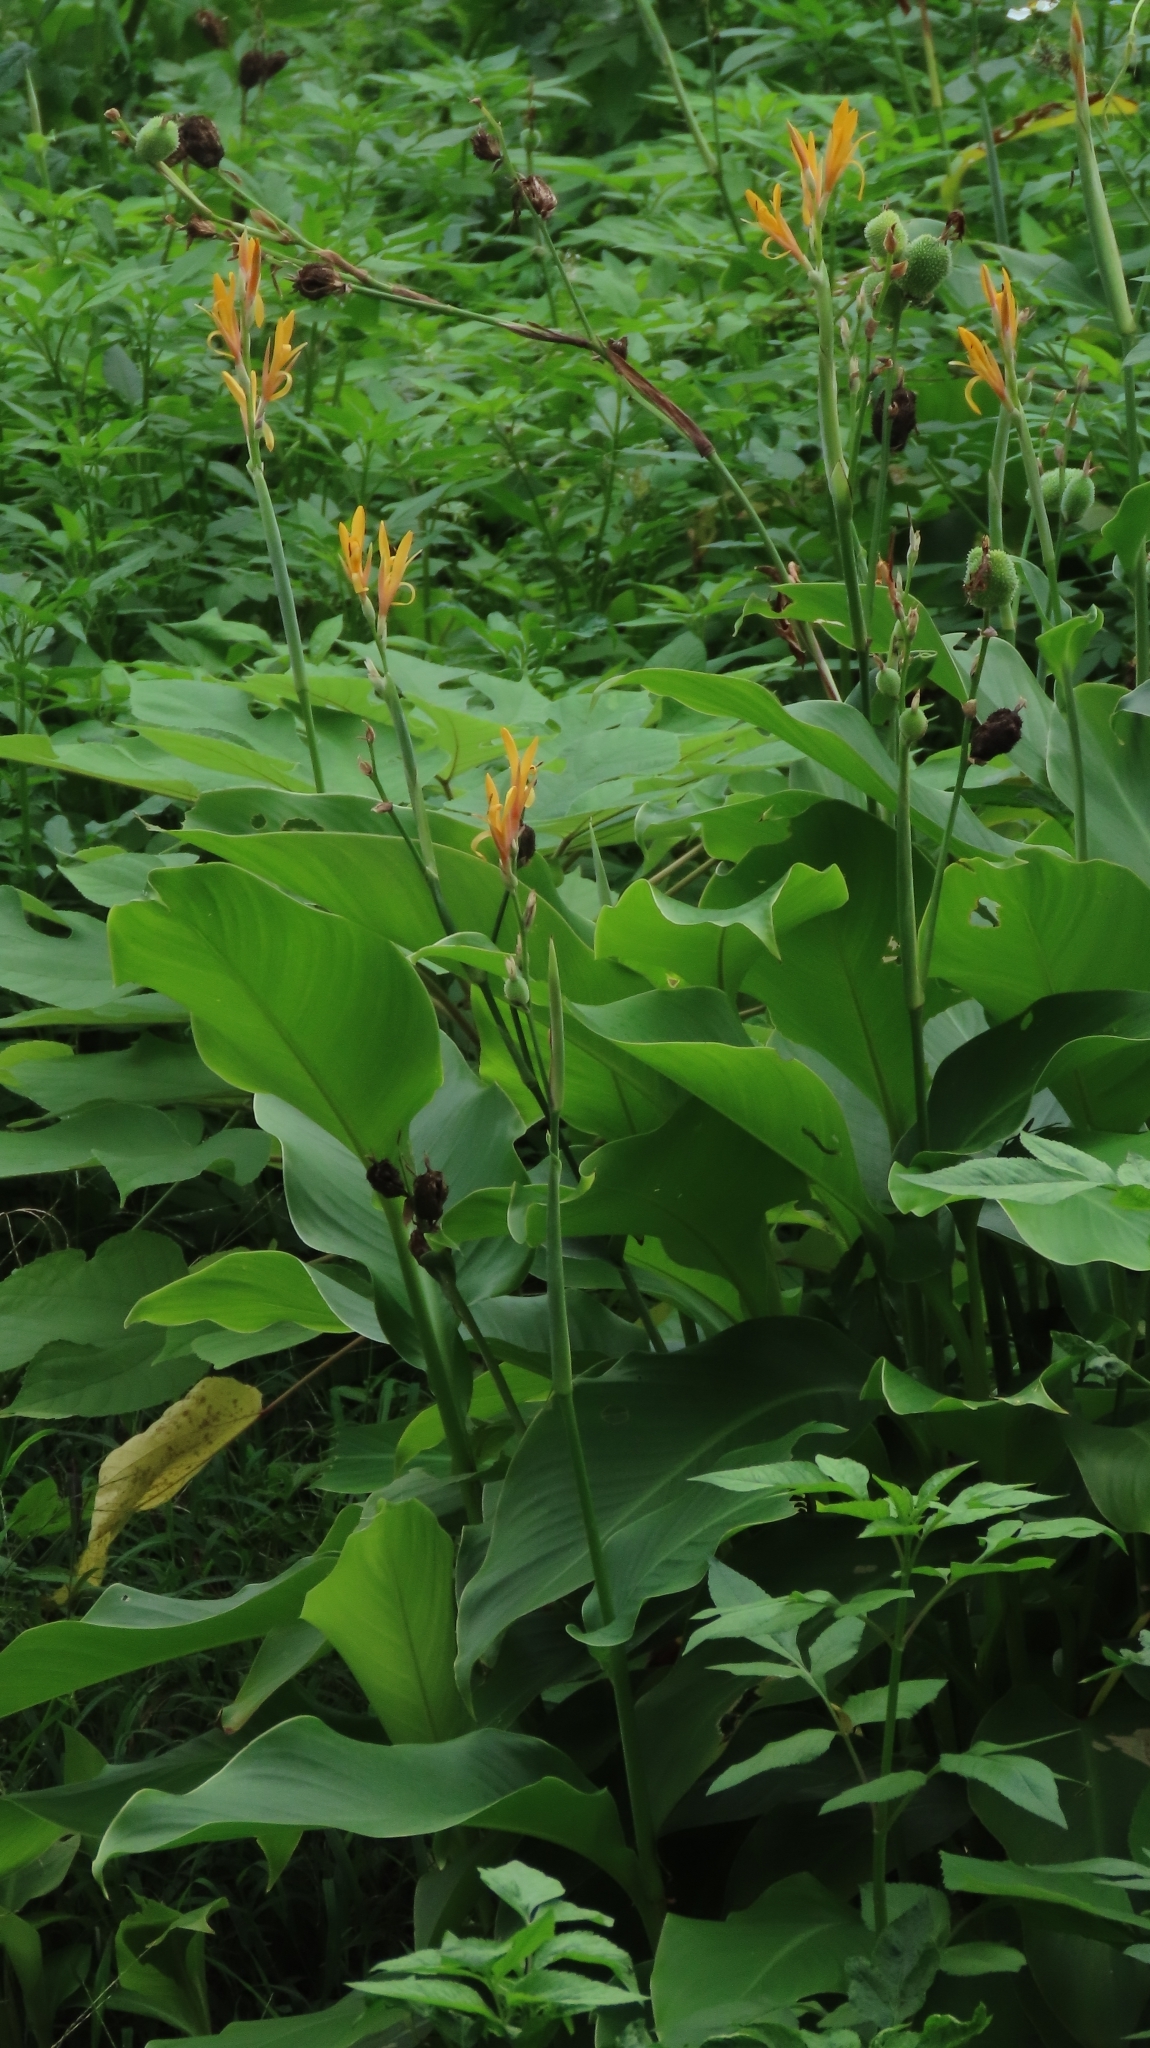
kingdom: Plantae
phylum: Tracheophyta
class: Liliopsida
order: Zingiberales
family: Cannaceae
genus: Canna
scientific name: Canna indica
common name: Indian shot
